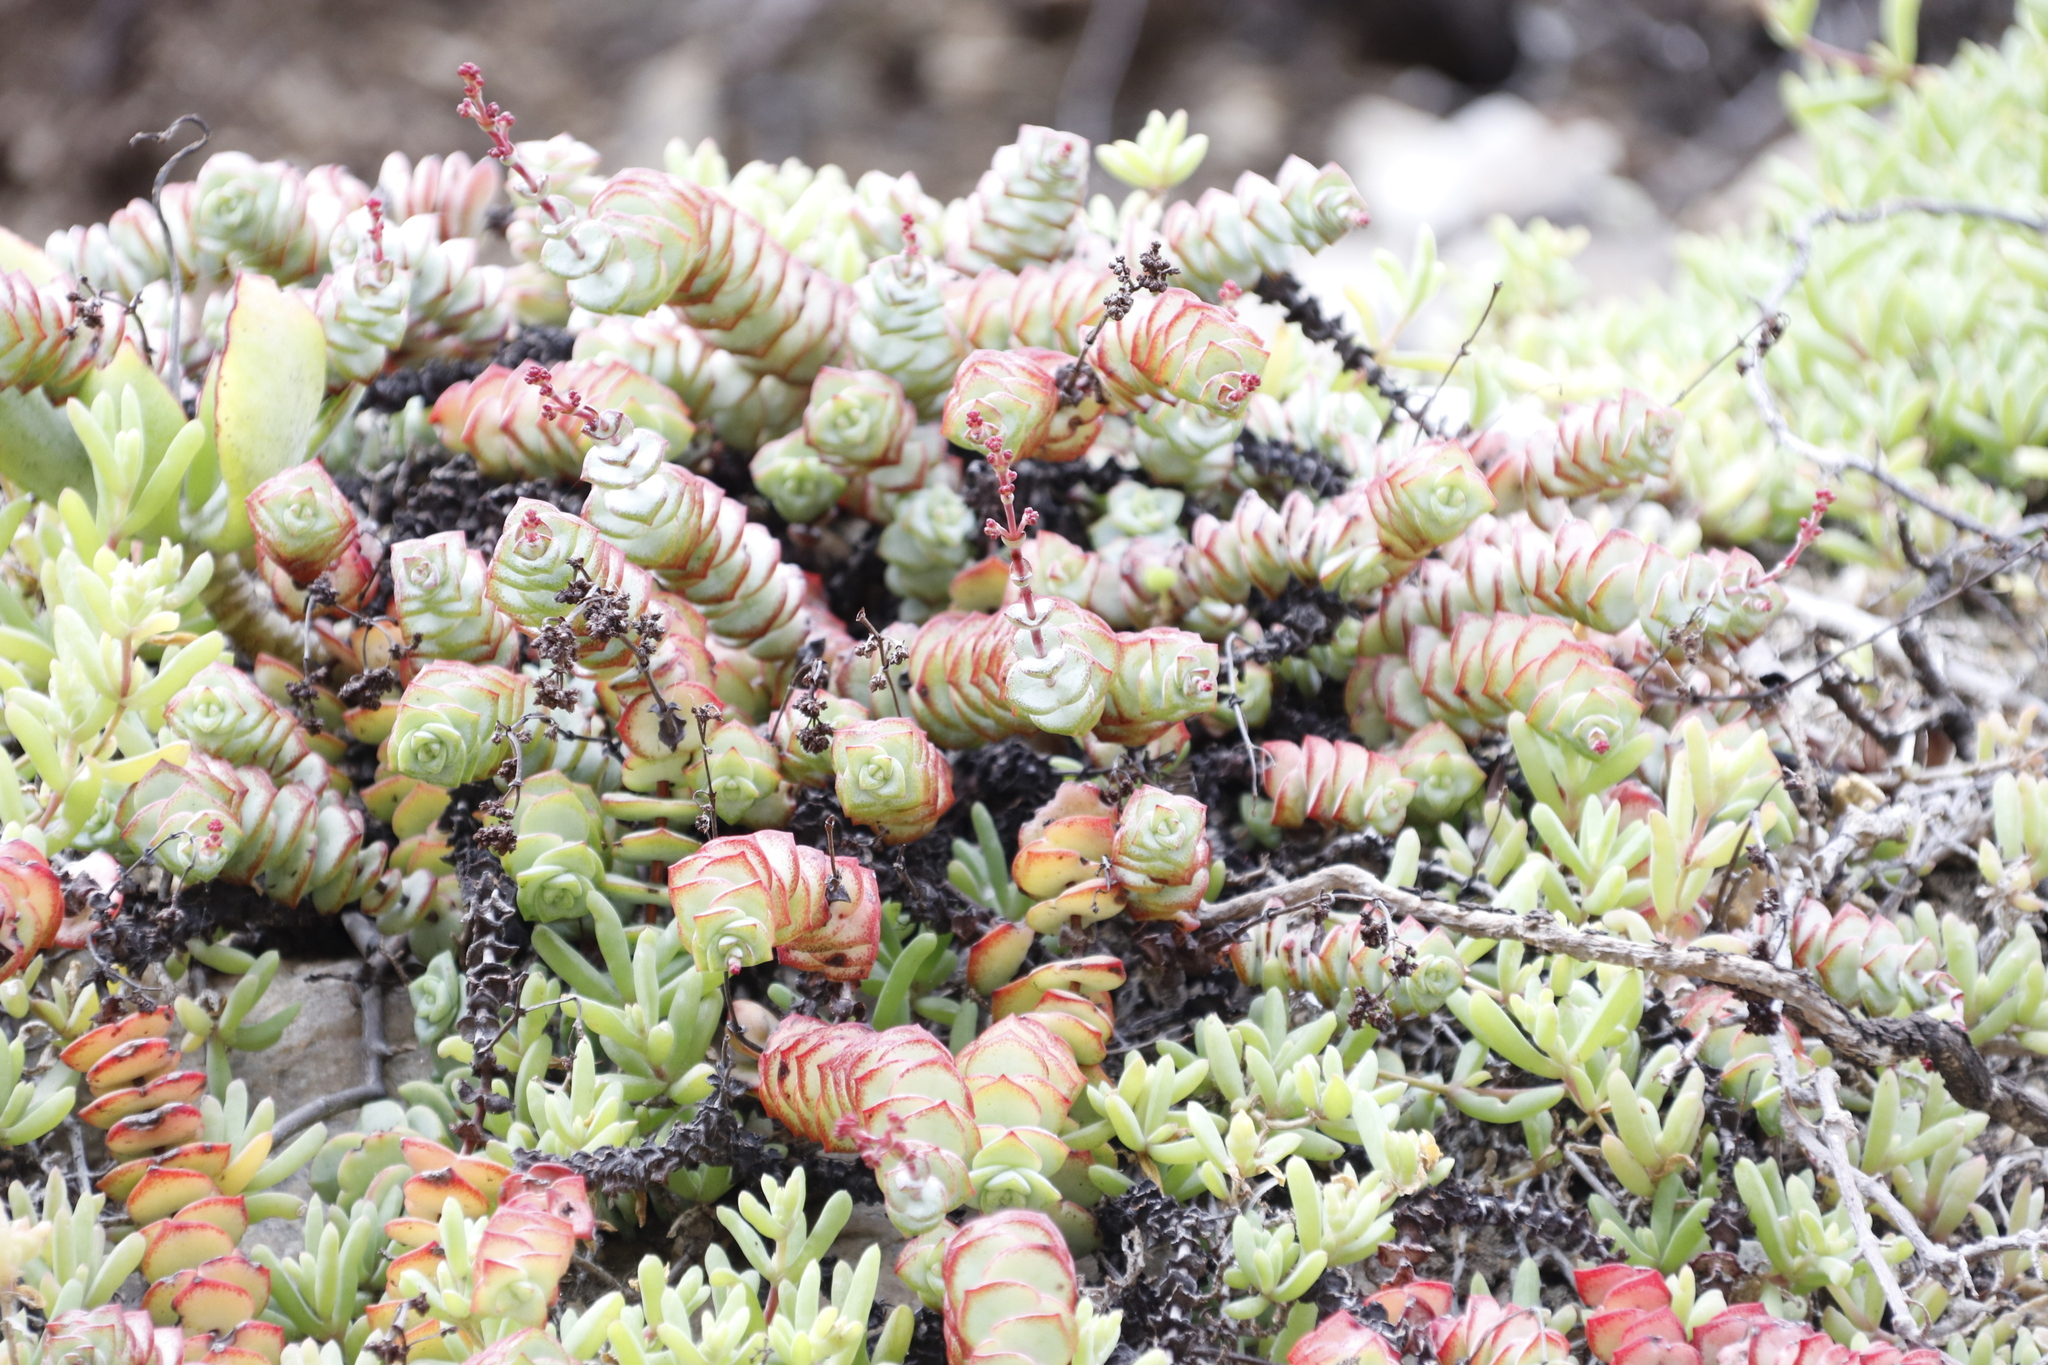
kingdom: Plantae
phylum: Tracheophyta
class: Magnoliopsida
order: Saxifragales
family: Crassulaceae
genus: Crassula
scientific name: Crassula perforata
